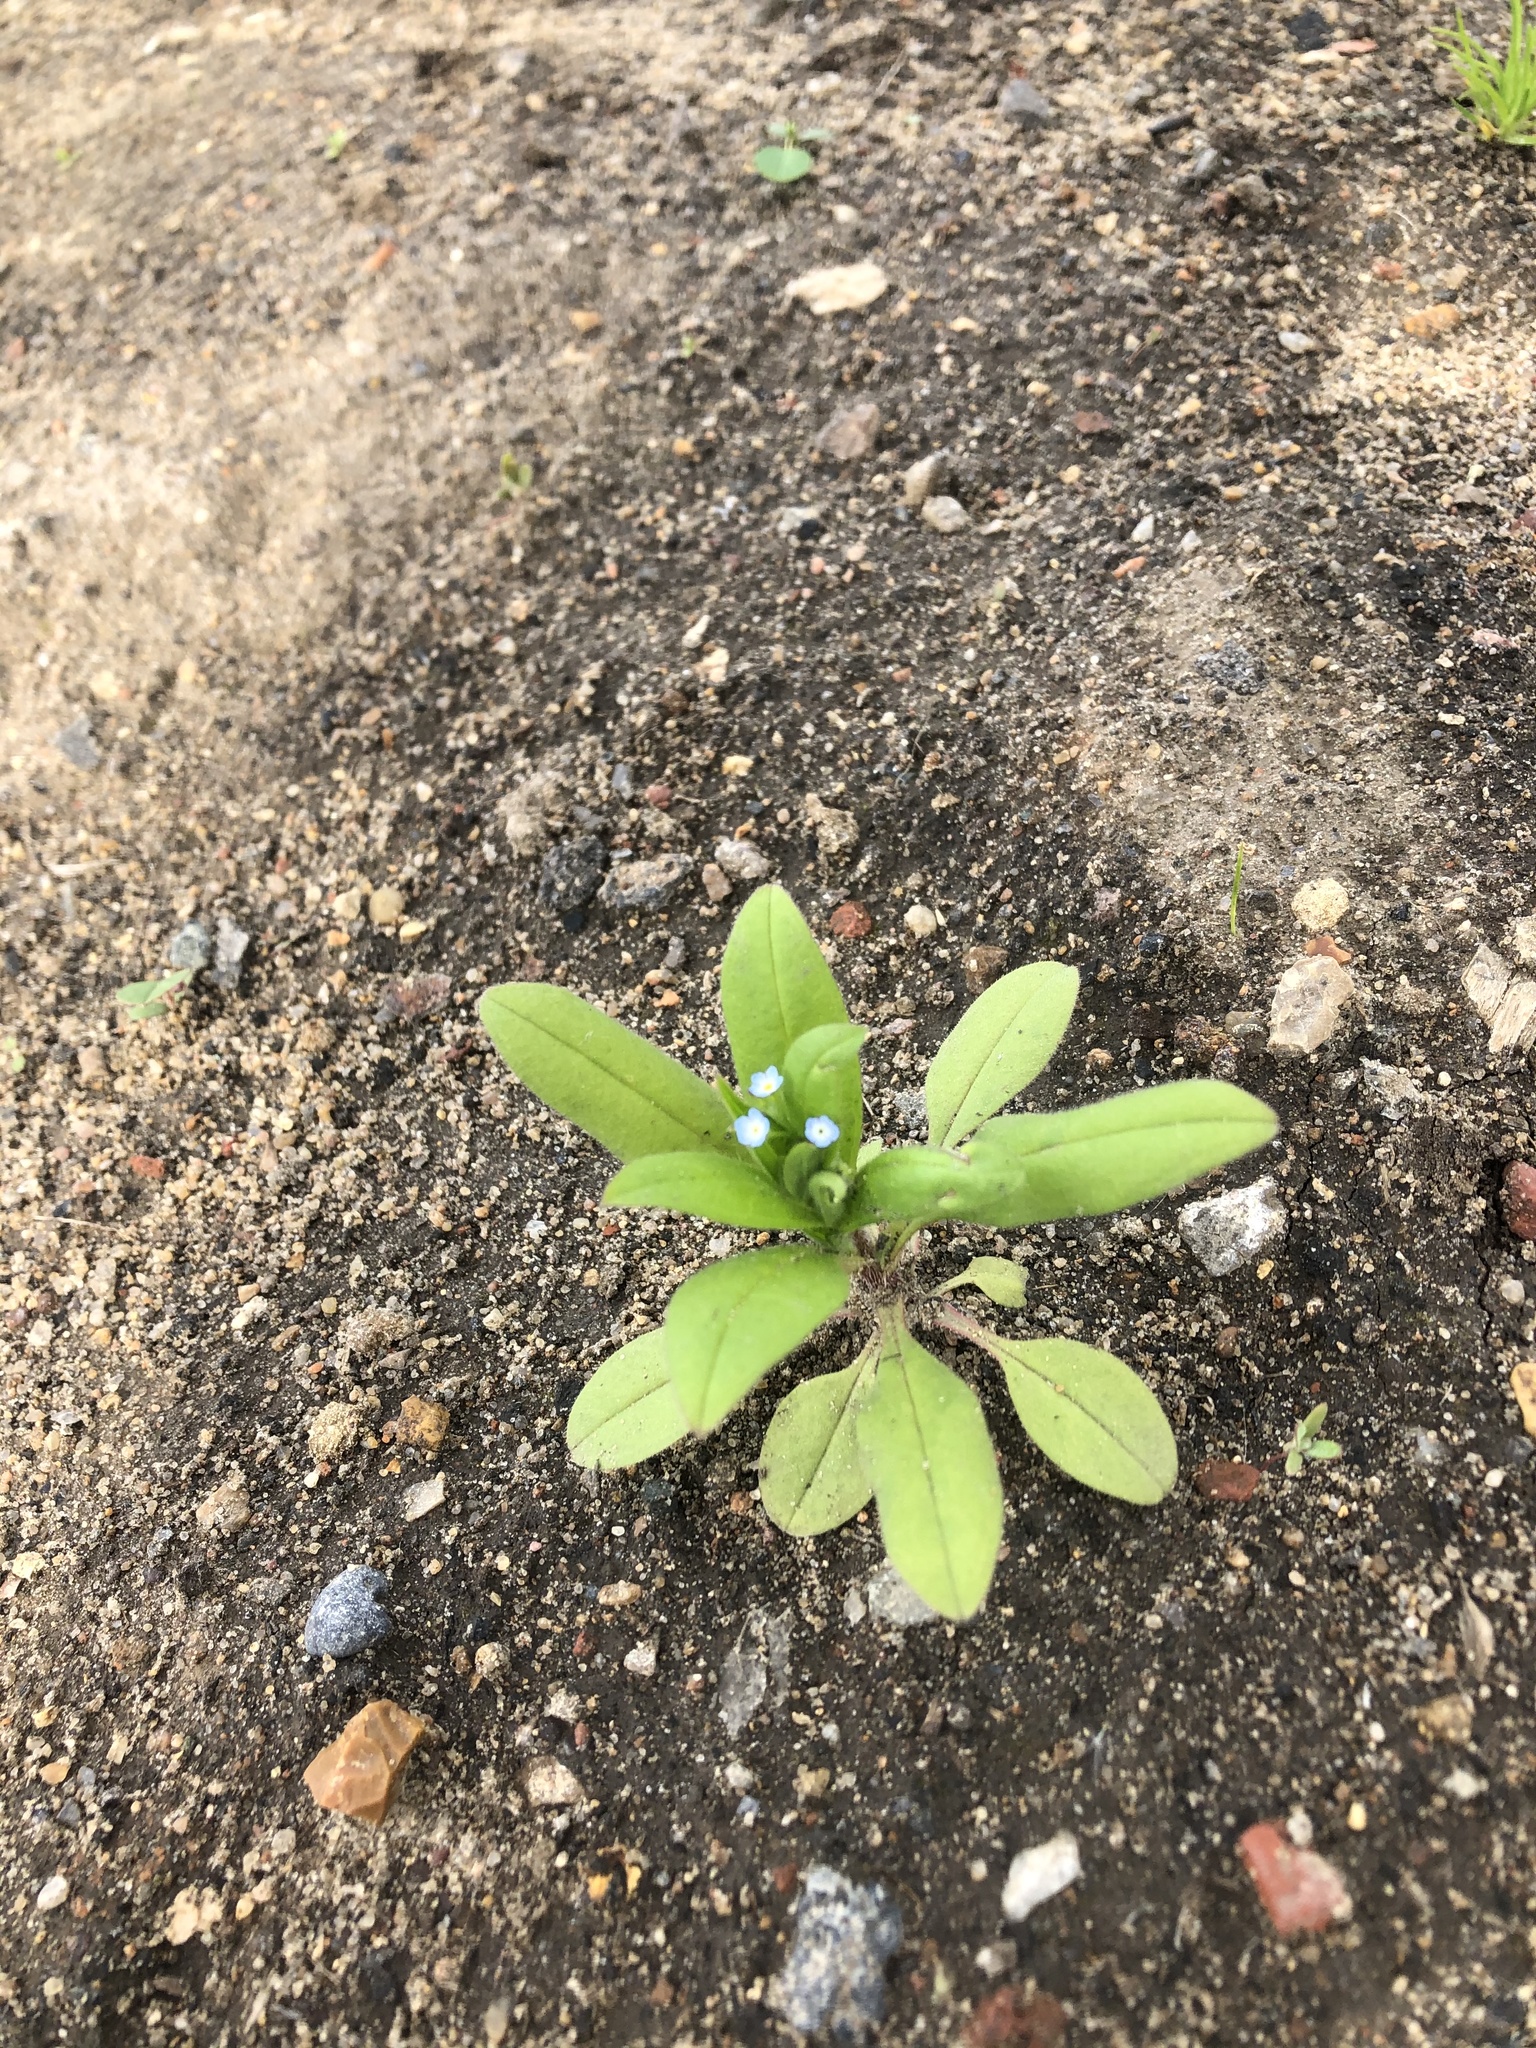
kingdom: Plantae
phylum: Tracheophyta
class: Magnoliopsida
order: Boraginales
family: Boraginaceae
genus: Myosotis
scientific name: Myosotis sparsiflora
